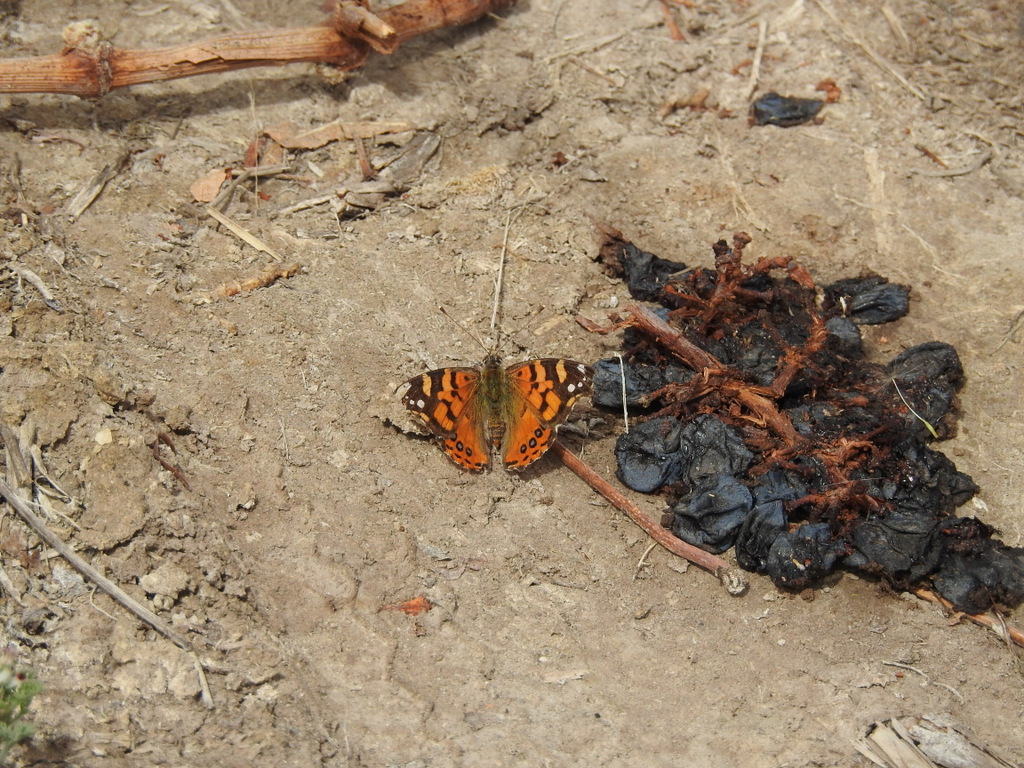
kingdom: Animalia
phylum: Arthropoda
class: Insecta
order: Lepidoptera
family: Nymphalidae
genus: Vanessa
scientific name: Vanessa carye
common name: Subtropical lady
